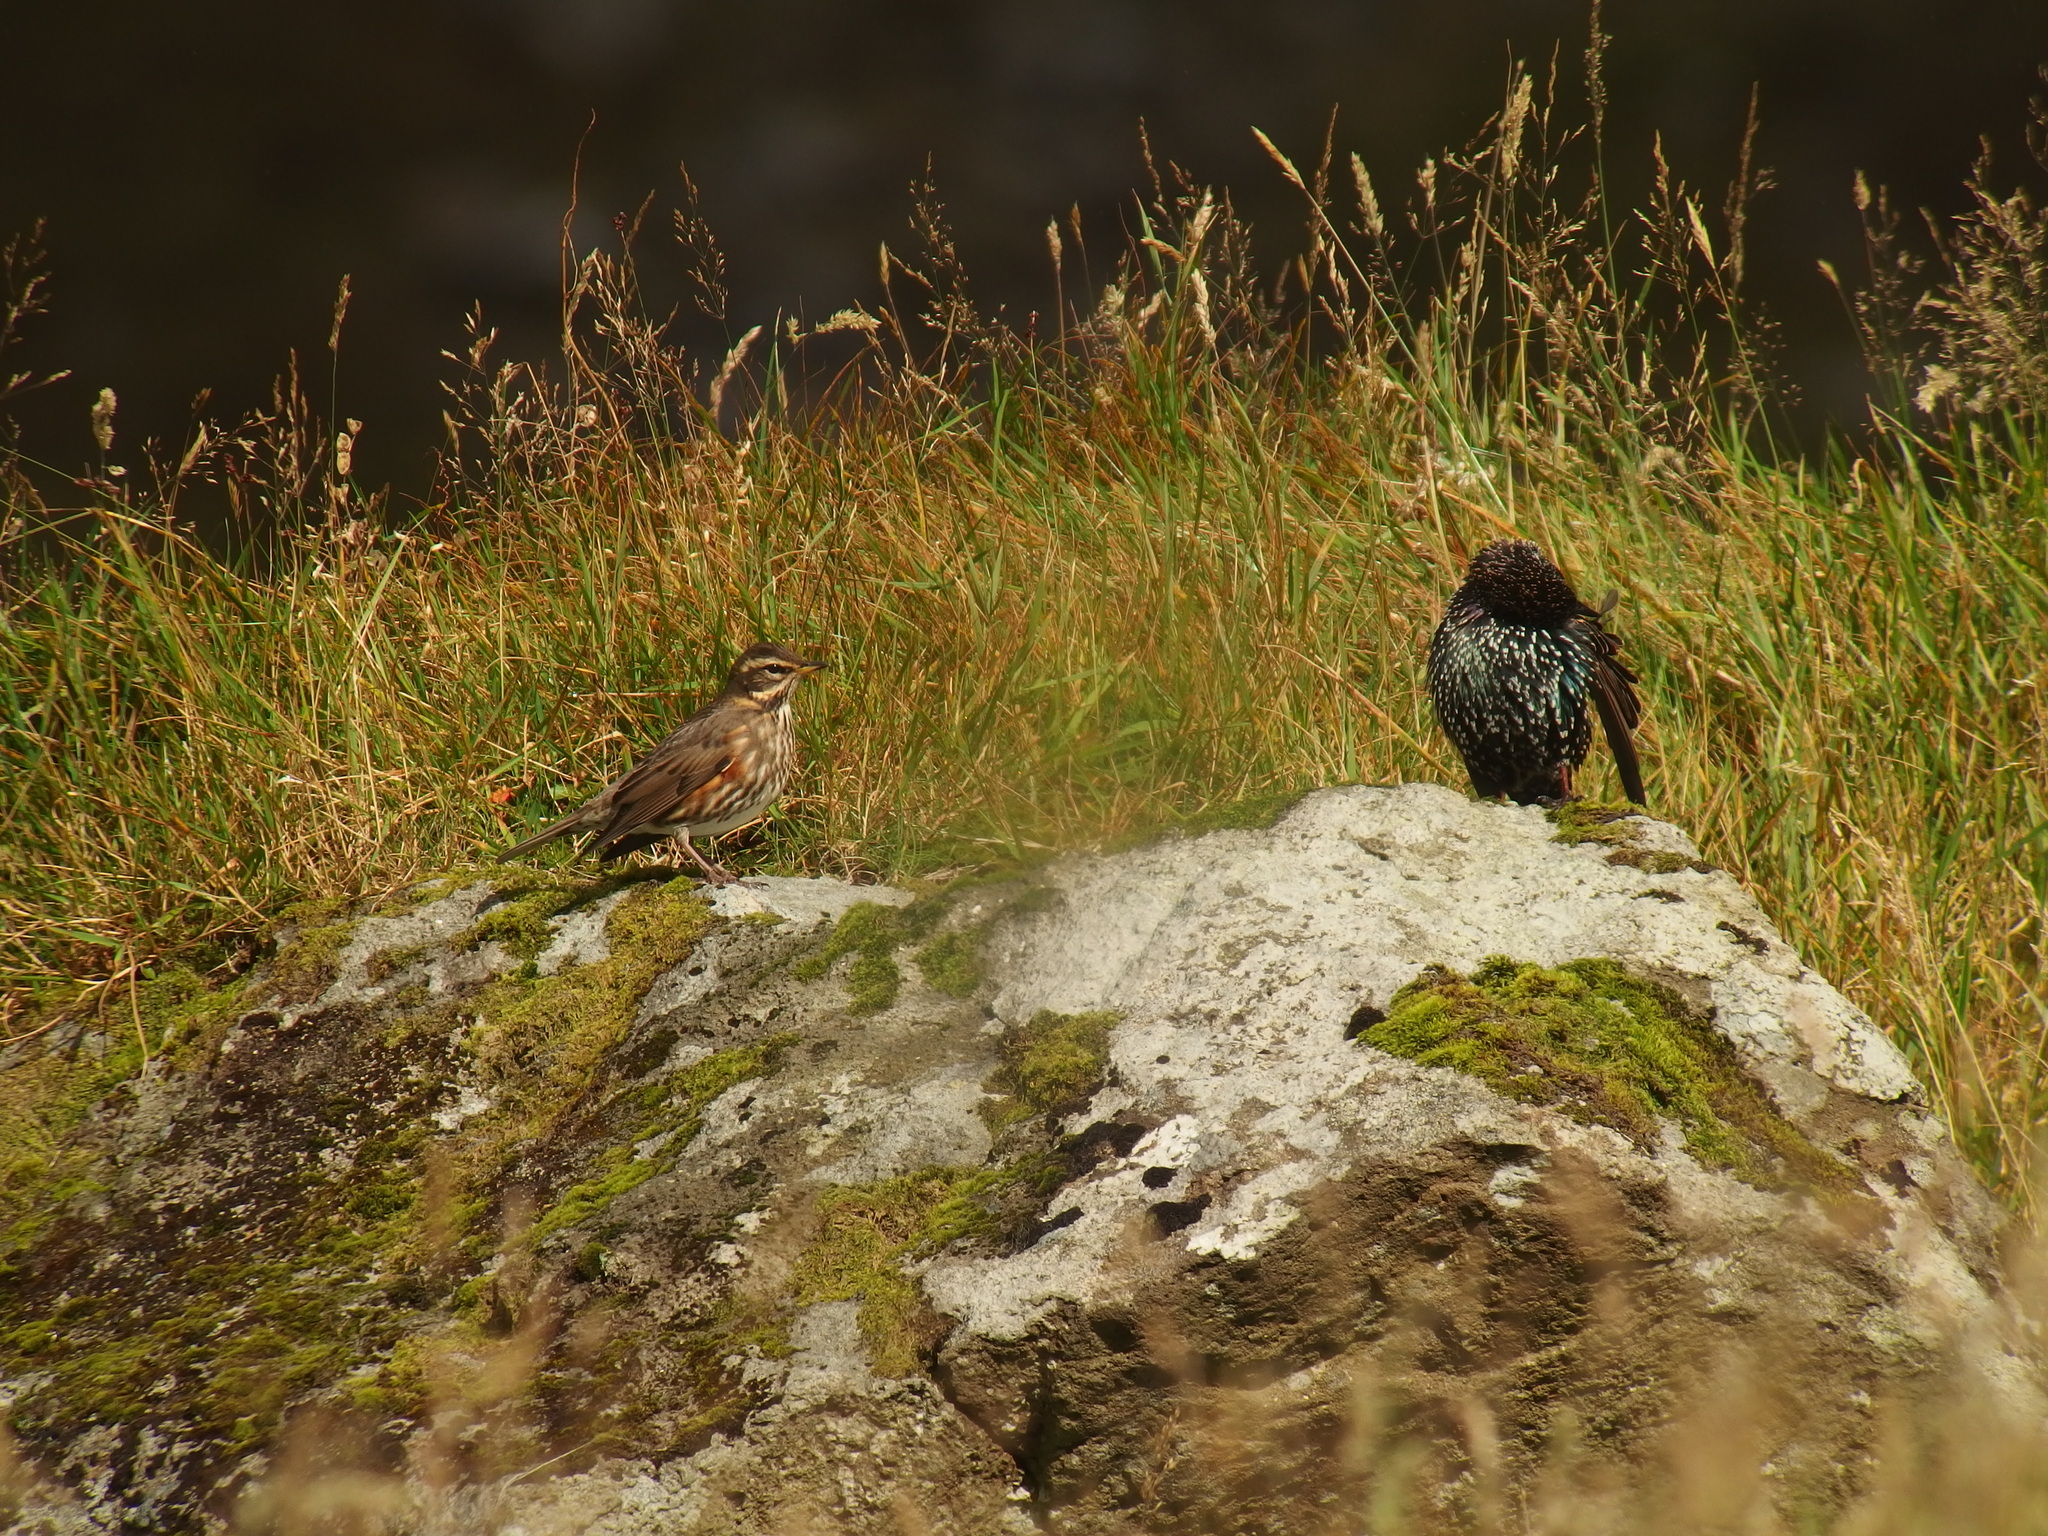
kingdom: Animalia
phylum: Chordata
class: Aves
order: Passeriformes
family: Sturnidae
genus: Sturnus
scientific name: Sturnus vulgaris
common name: Common starling
